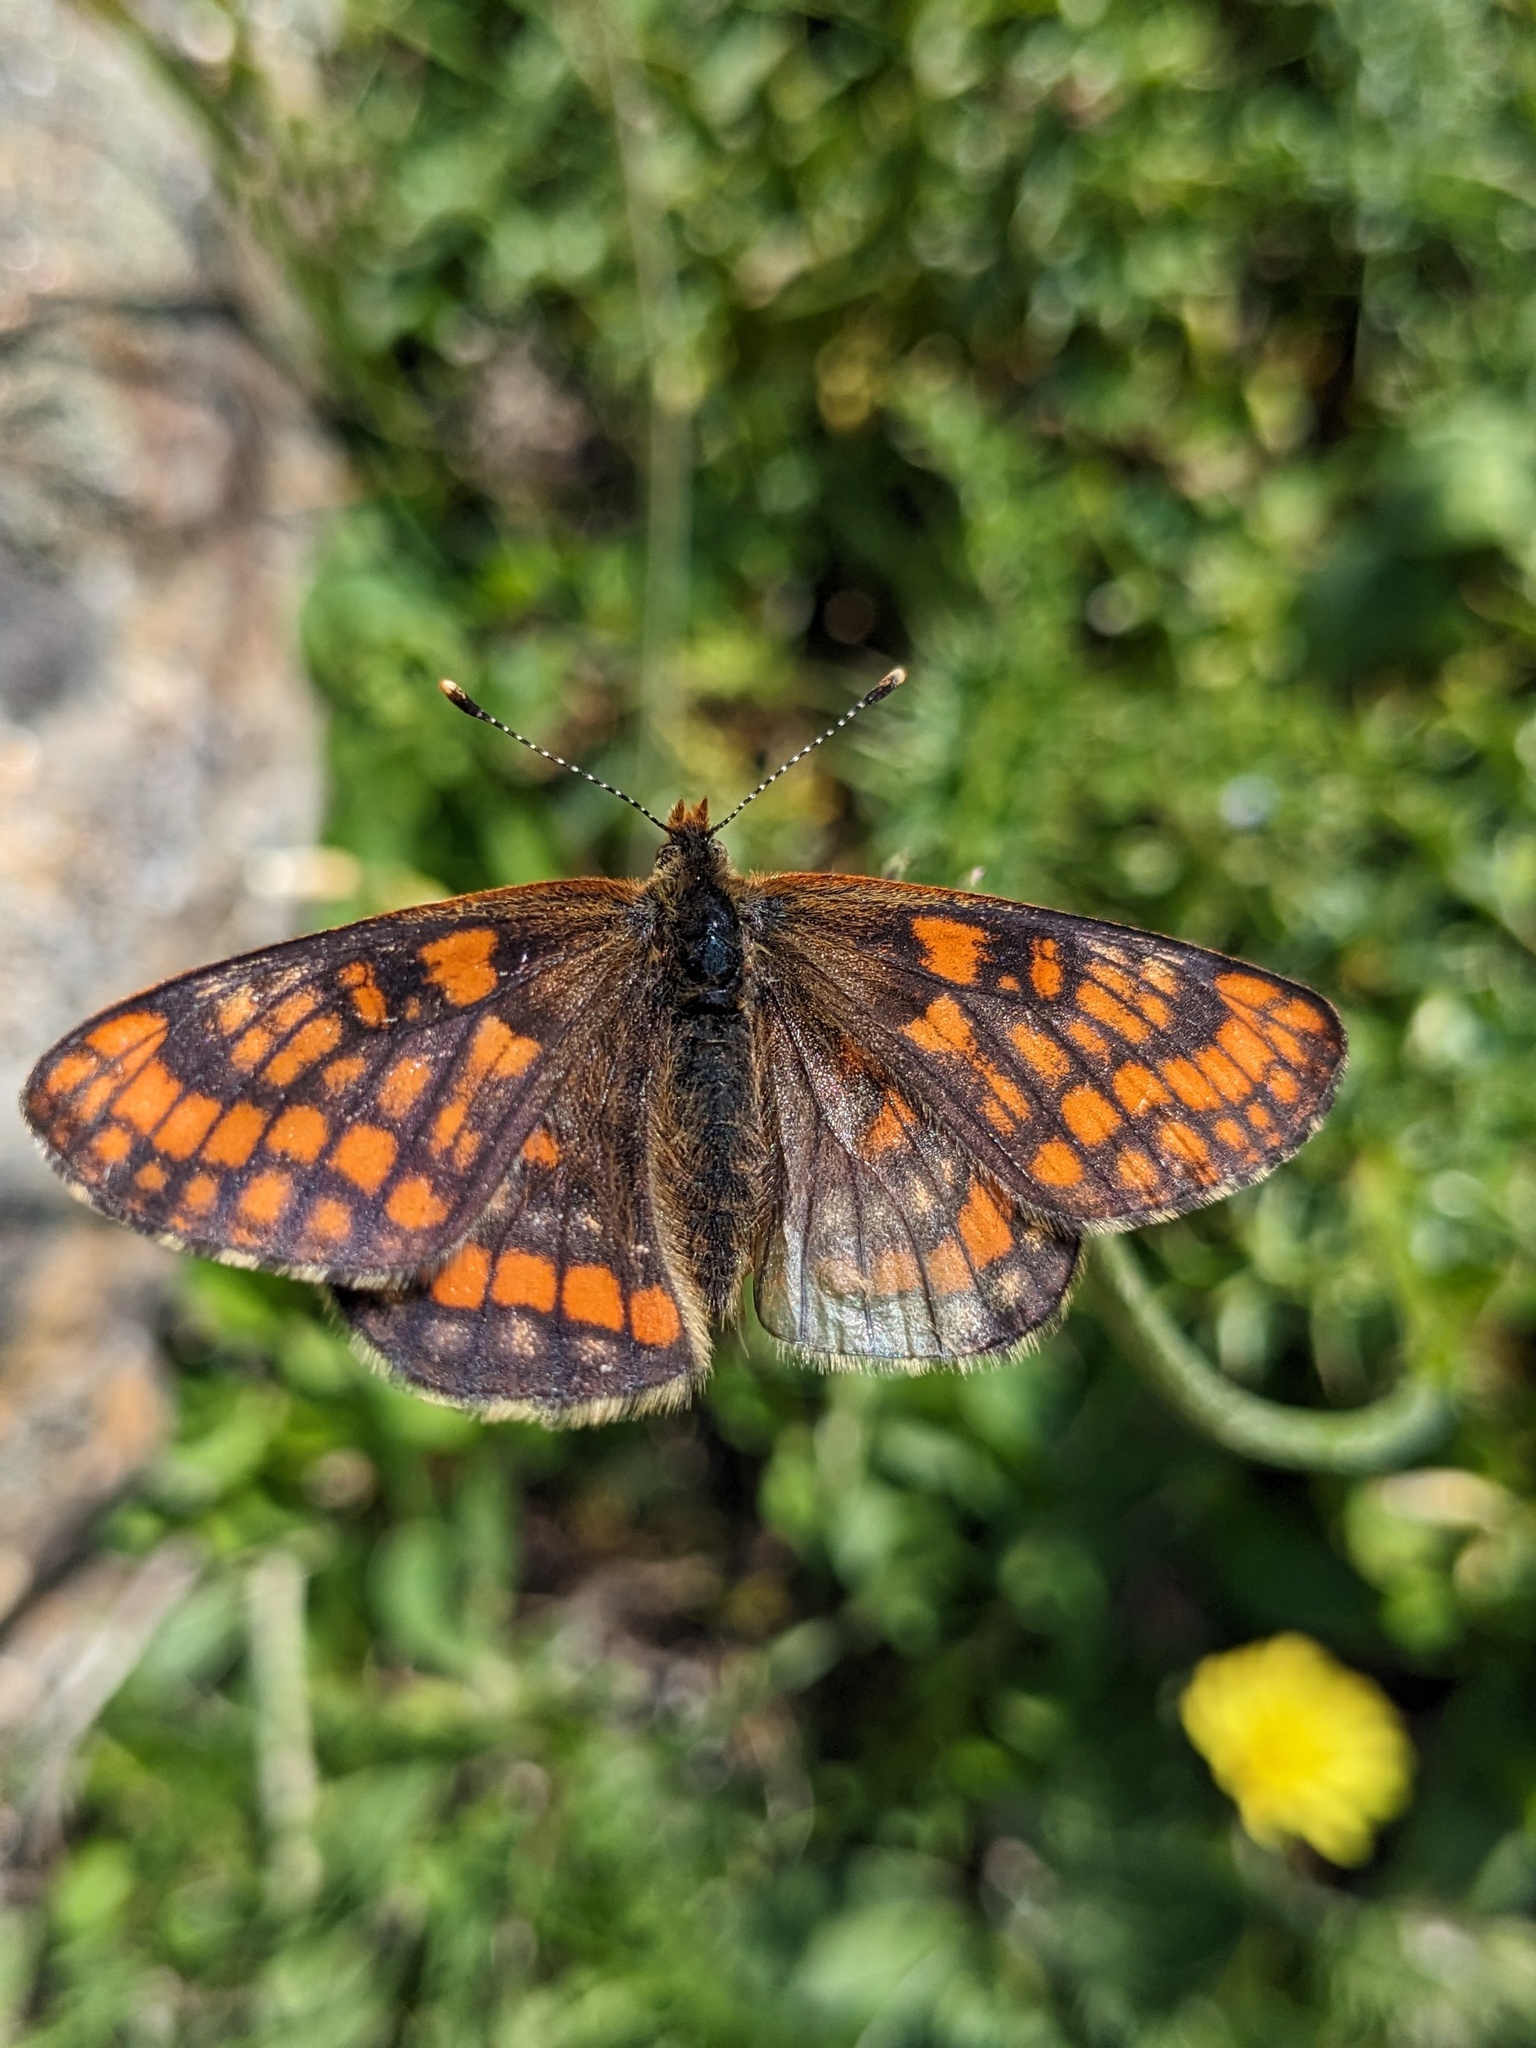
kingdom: Animalia
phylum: Arthropoda
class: Insecta
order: Lepidoptera
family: Nymphalidae
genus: Hypodryas
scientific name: Hypodryas intermedia
